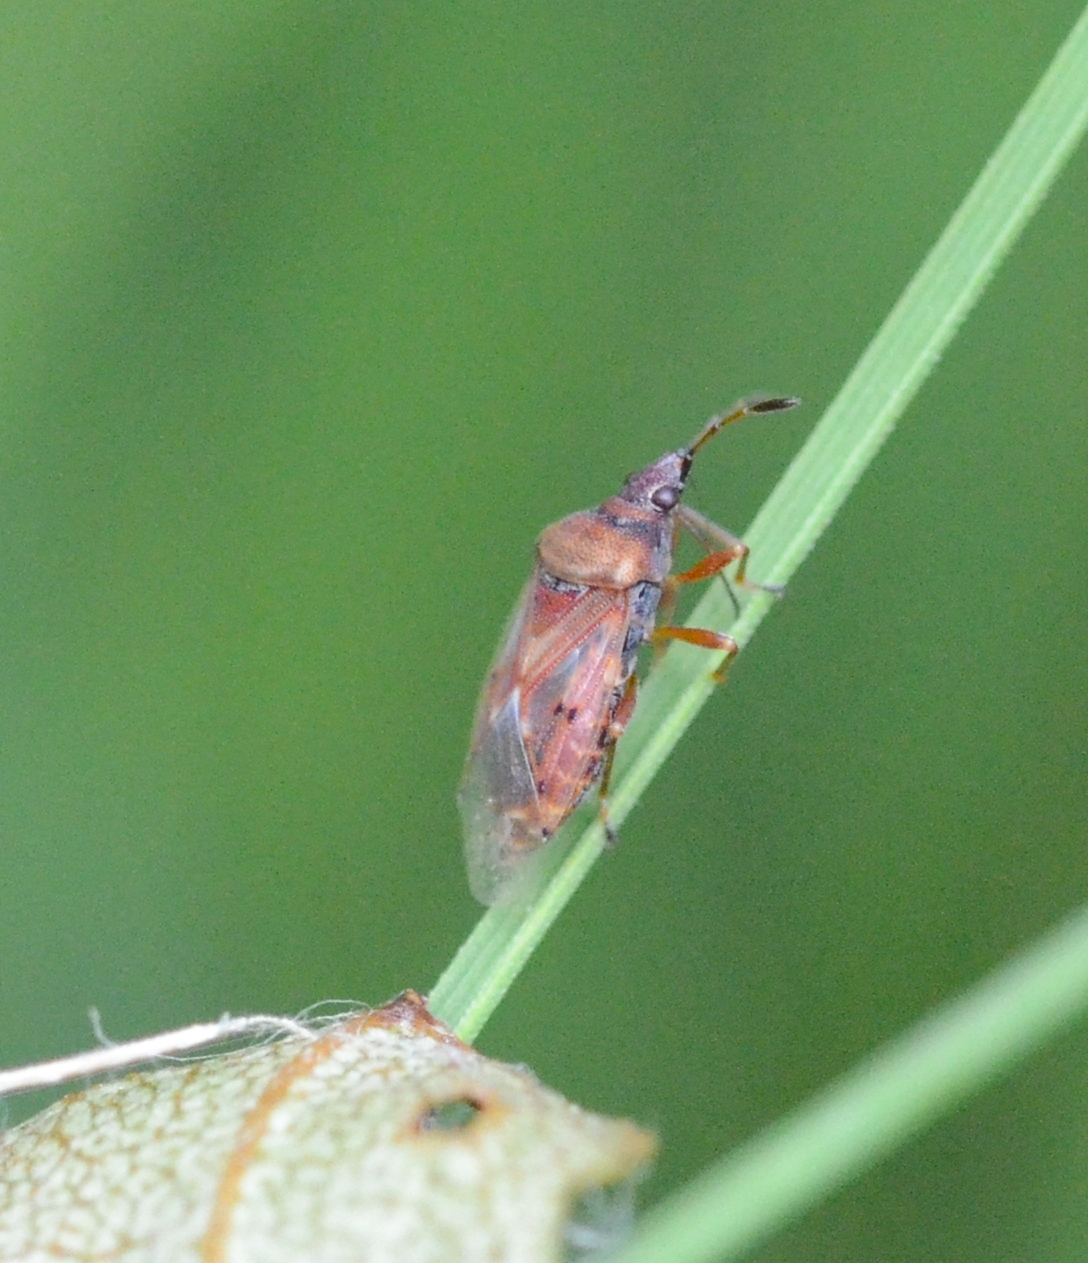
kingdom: Animalia
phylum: Arthropoda
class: Insecta
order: Hemiptera
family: Lygaeidae
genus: Kleidocerys
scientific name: Kleidocerys resedae
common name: Birch catkin bug
